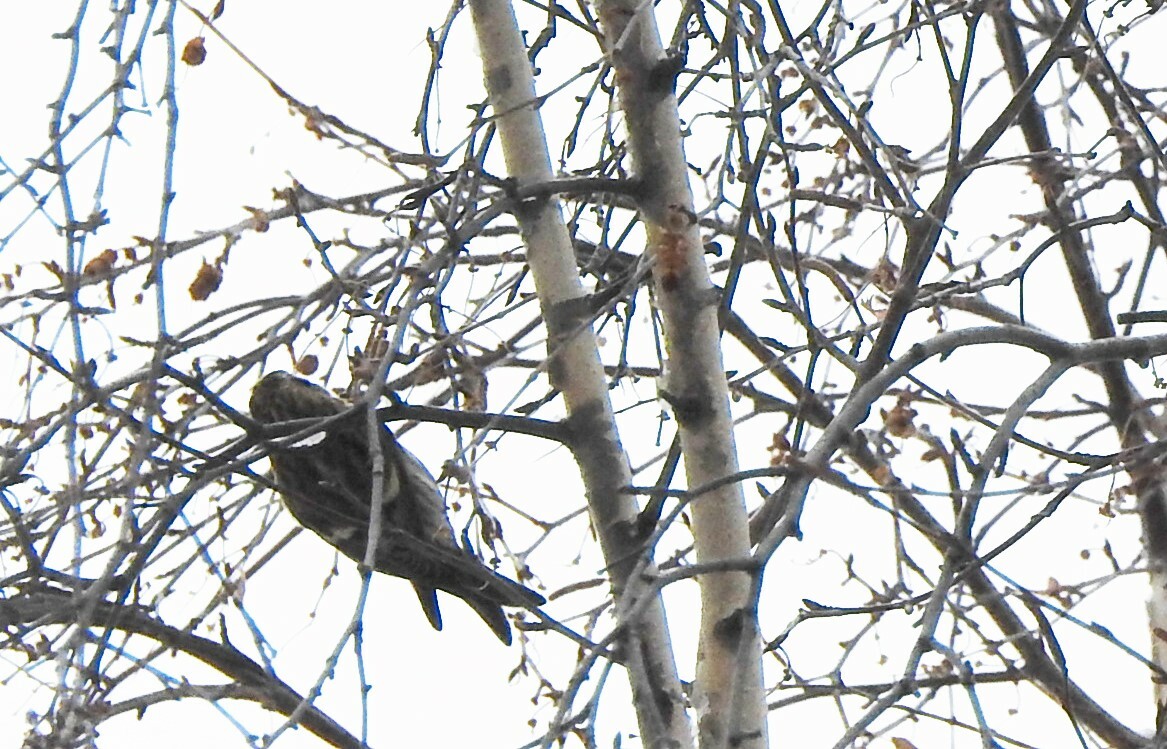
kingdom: Animalia
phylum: Chordata
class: Aves
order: Passeriformes
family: Fringillidae
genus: Acanthis
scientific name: Acanthis flammea
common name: Common redpoll
